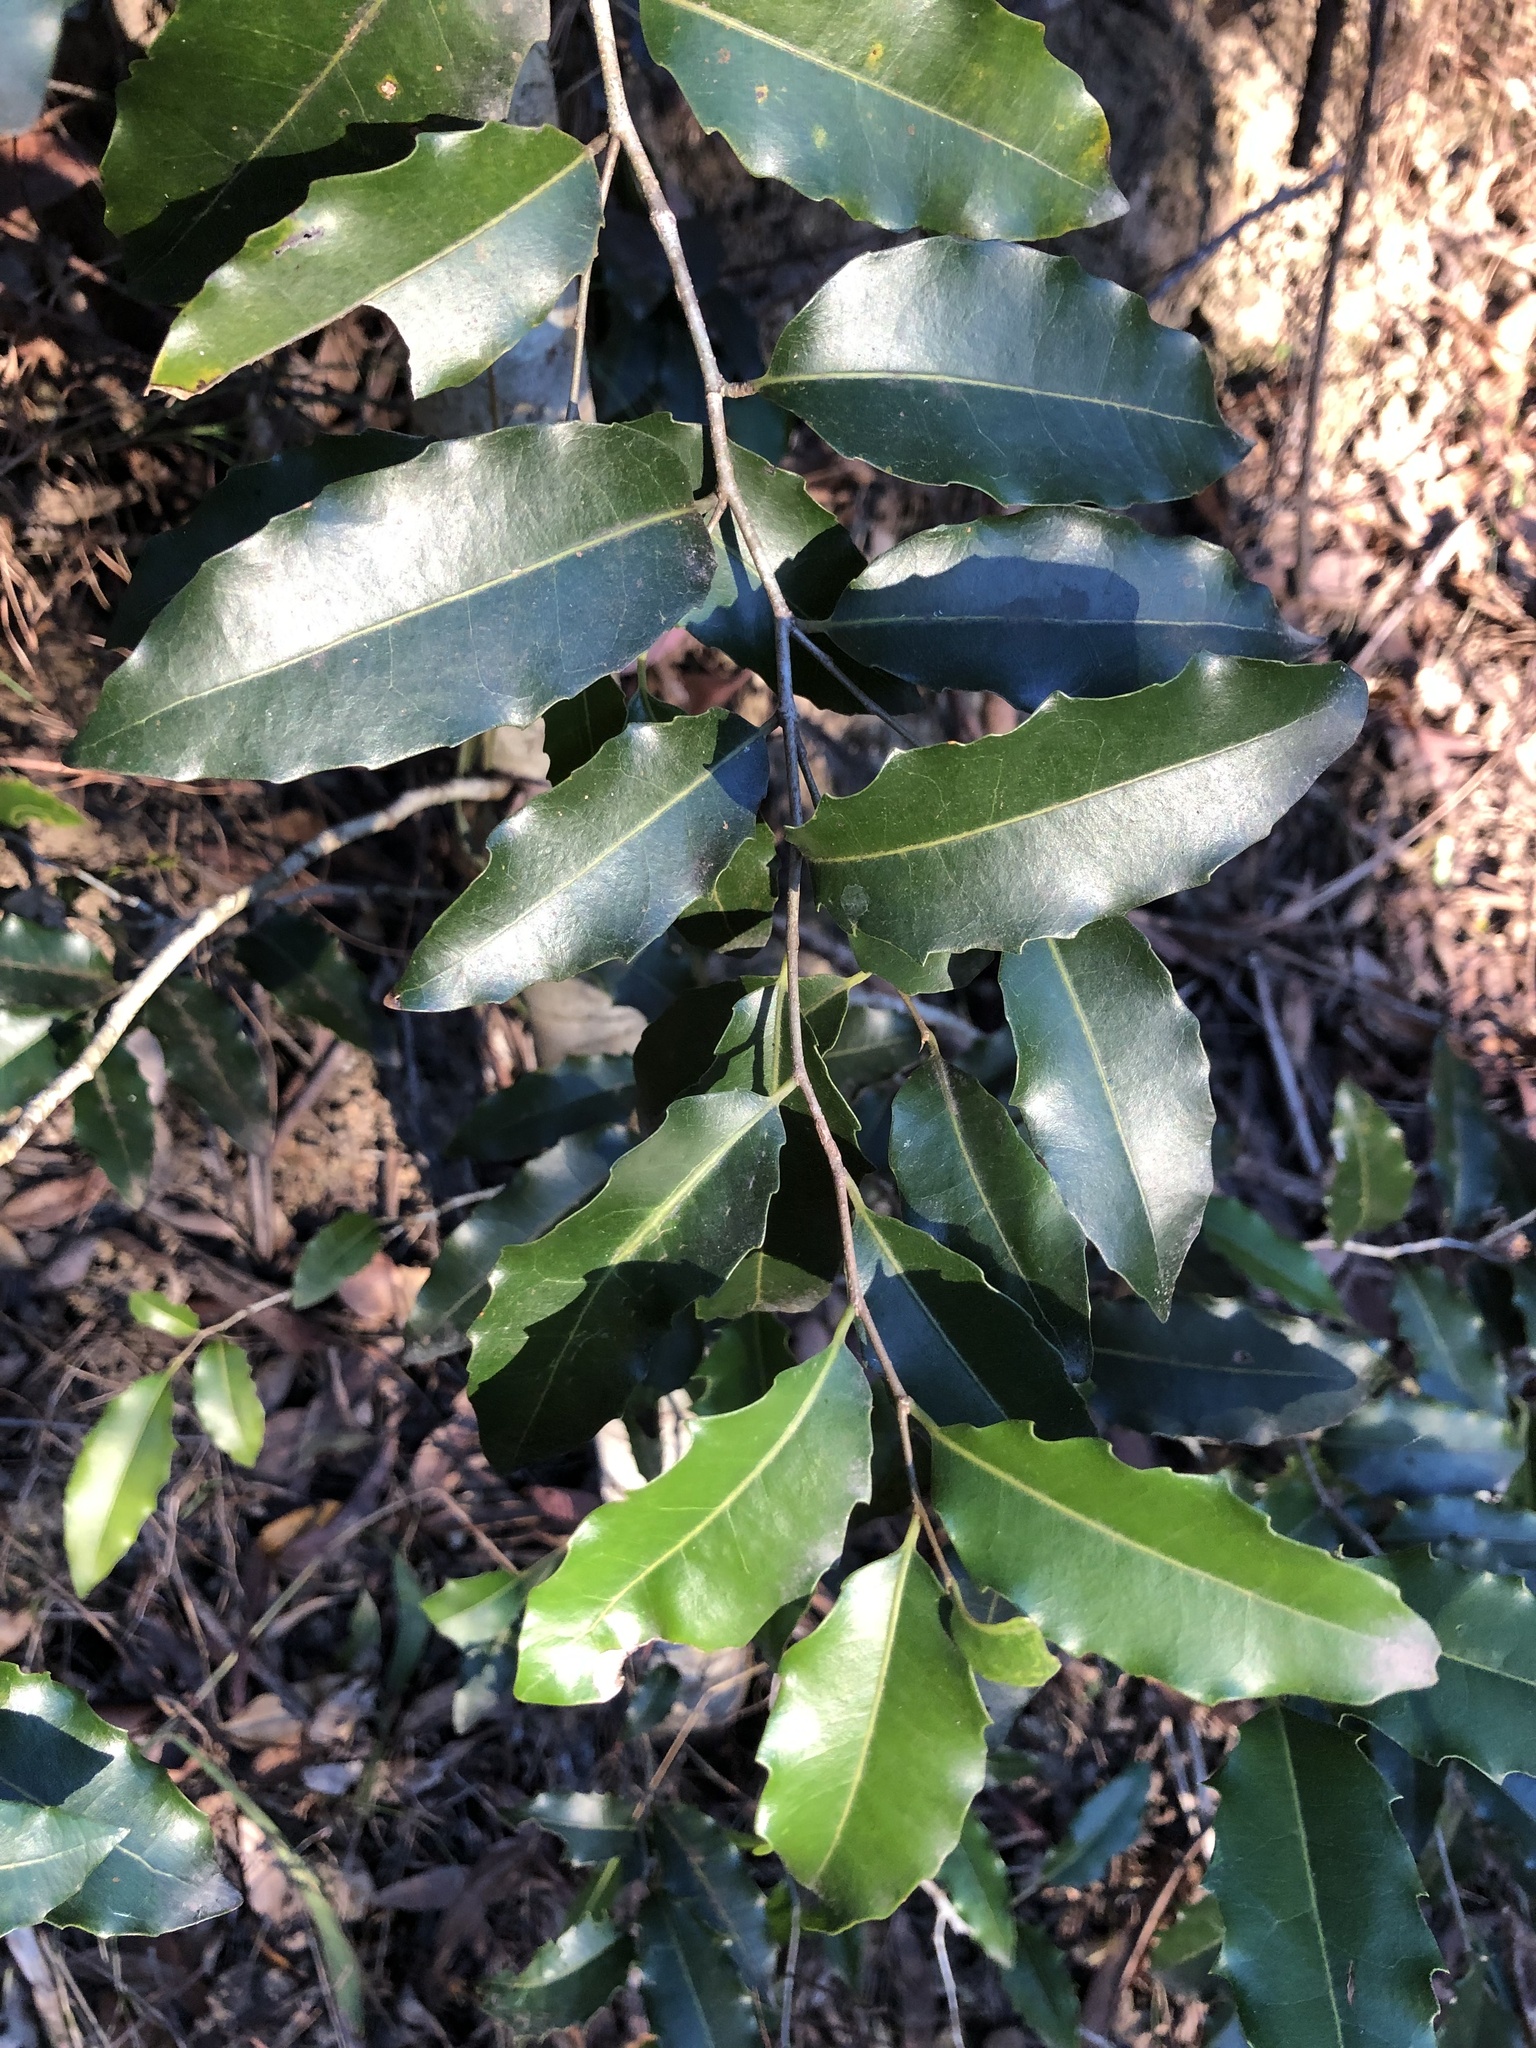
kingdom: Plantae
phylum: Tracheophyta
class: Magnoliopsida
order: Malpighiales
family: Putranjivaceae
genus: Drypetes
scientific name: Drypetes deplanchei
